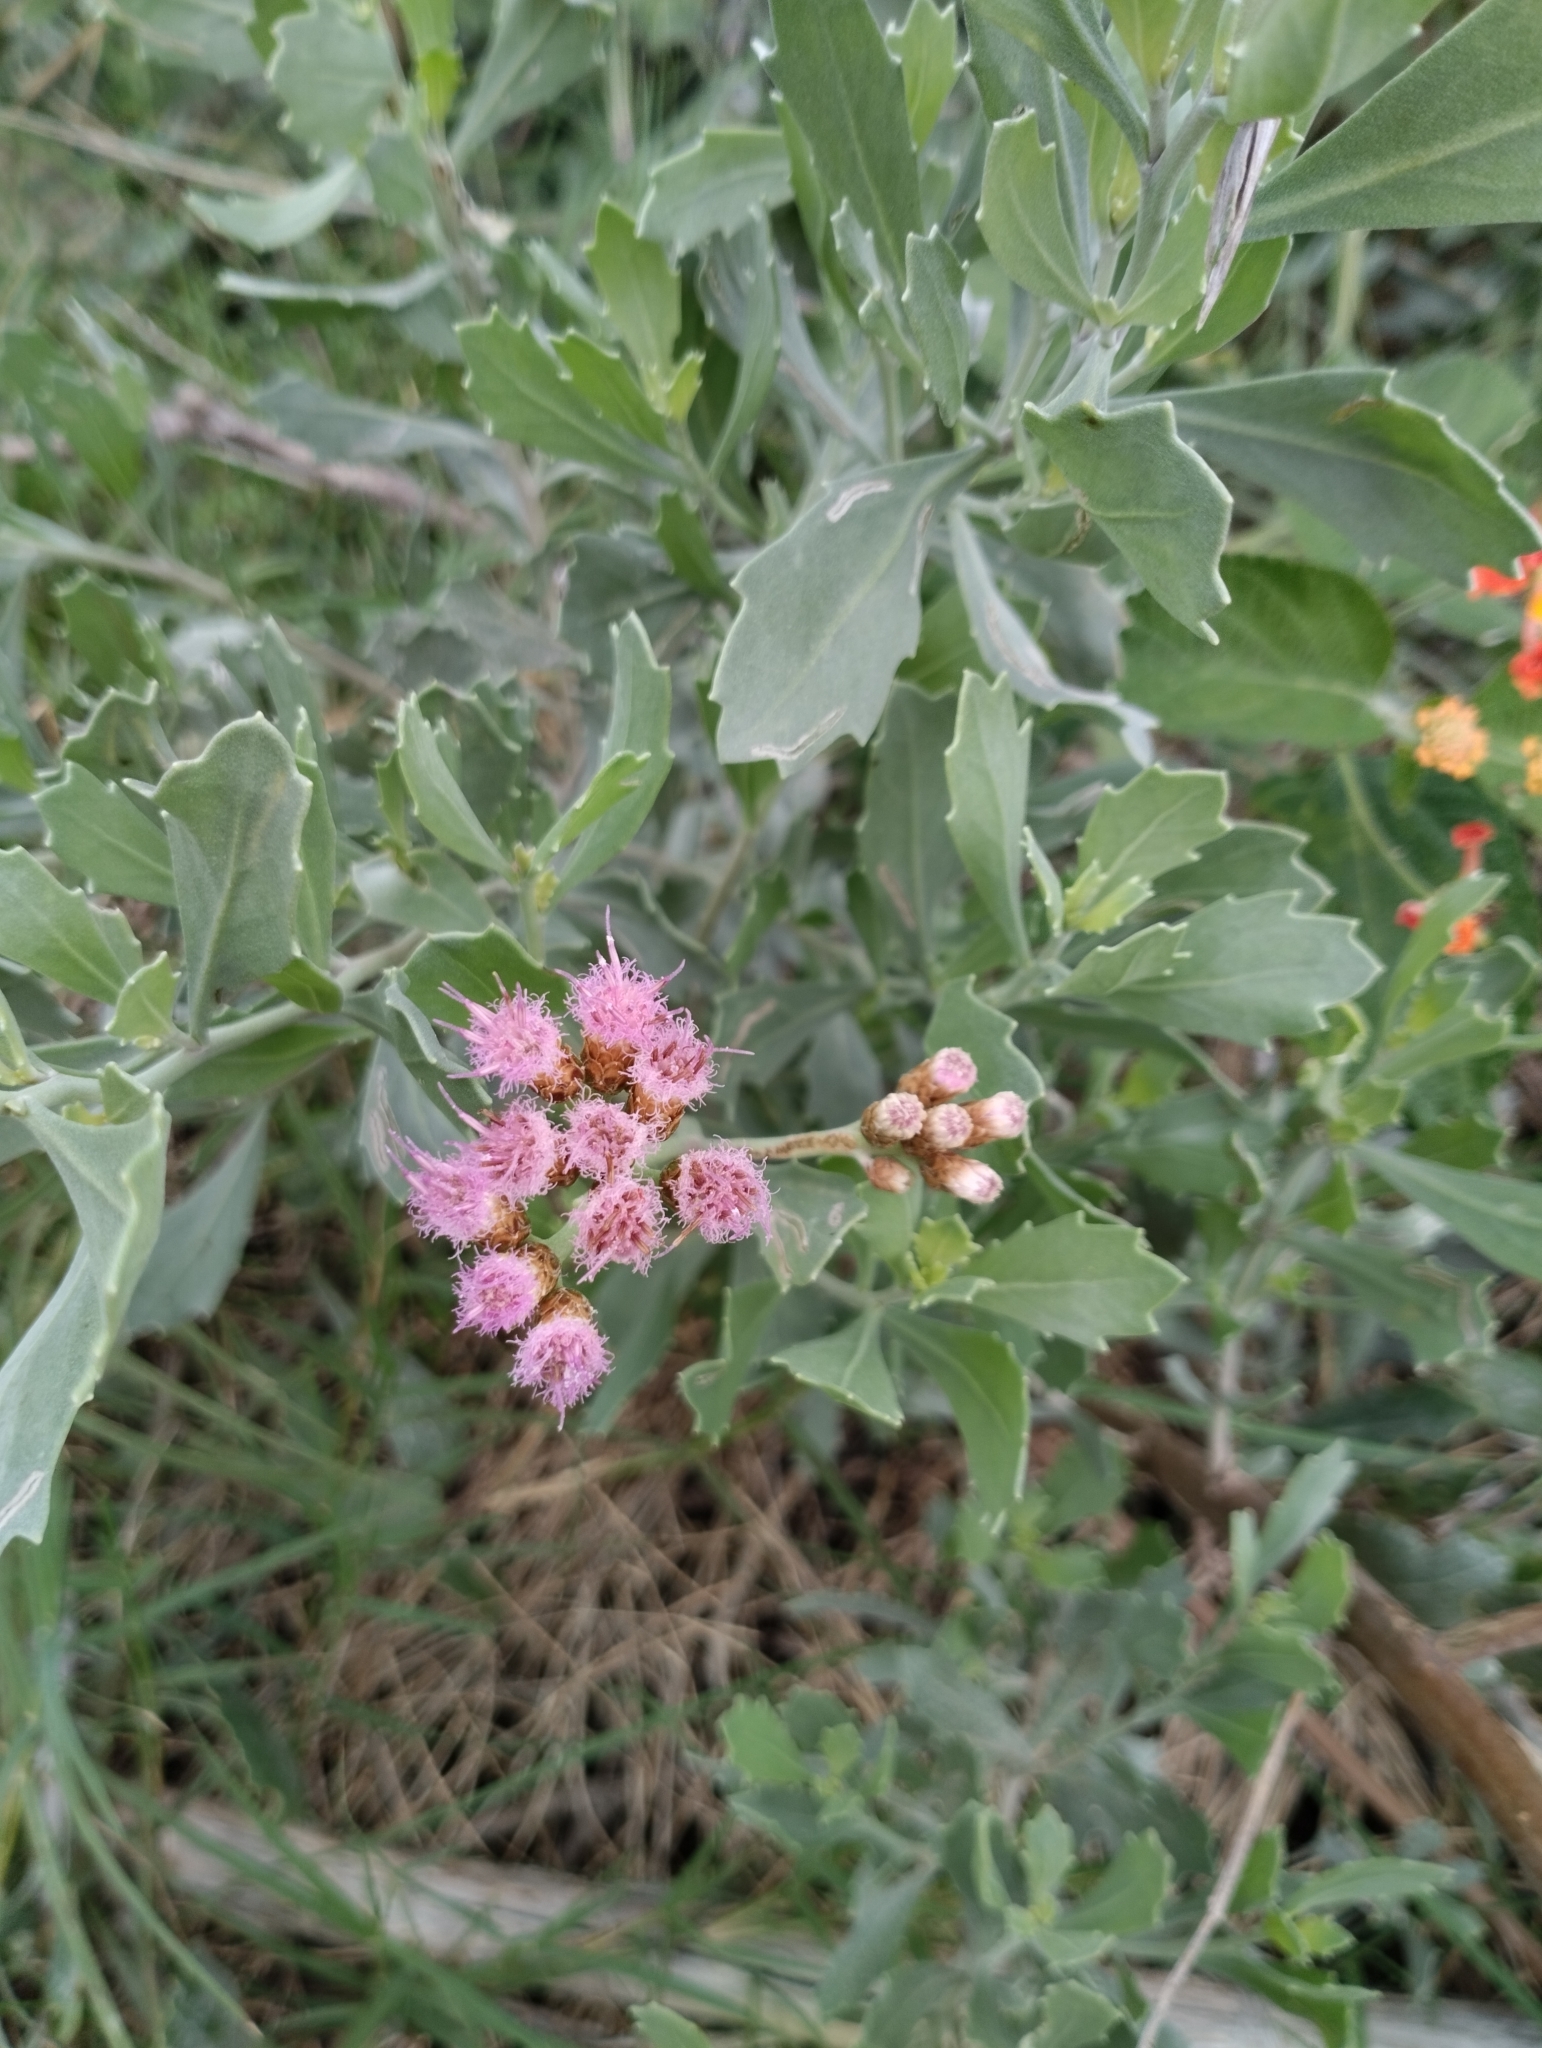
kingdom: Plantae
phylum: Tracheophyta
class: Magnoliopsida
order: Asterales
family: Asteraceae
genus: Tessaria
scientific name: Tessaria absinthioides
